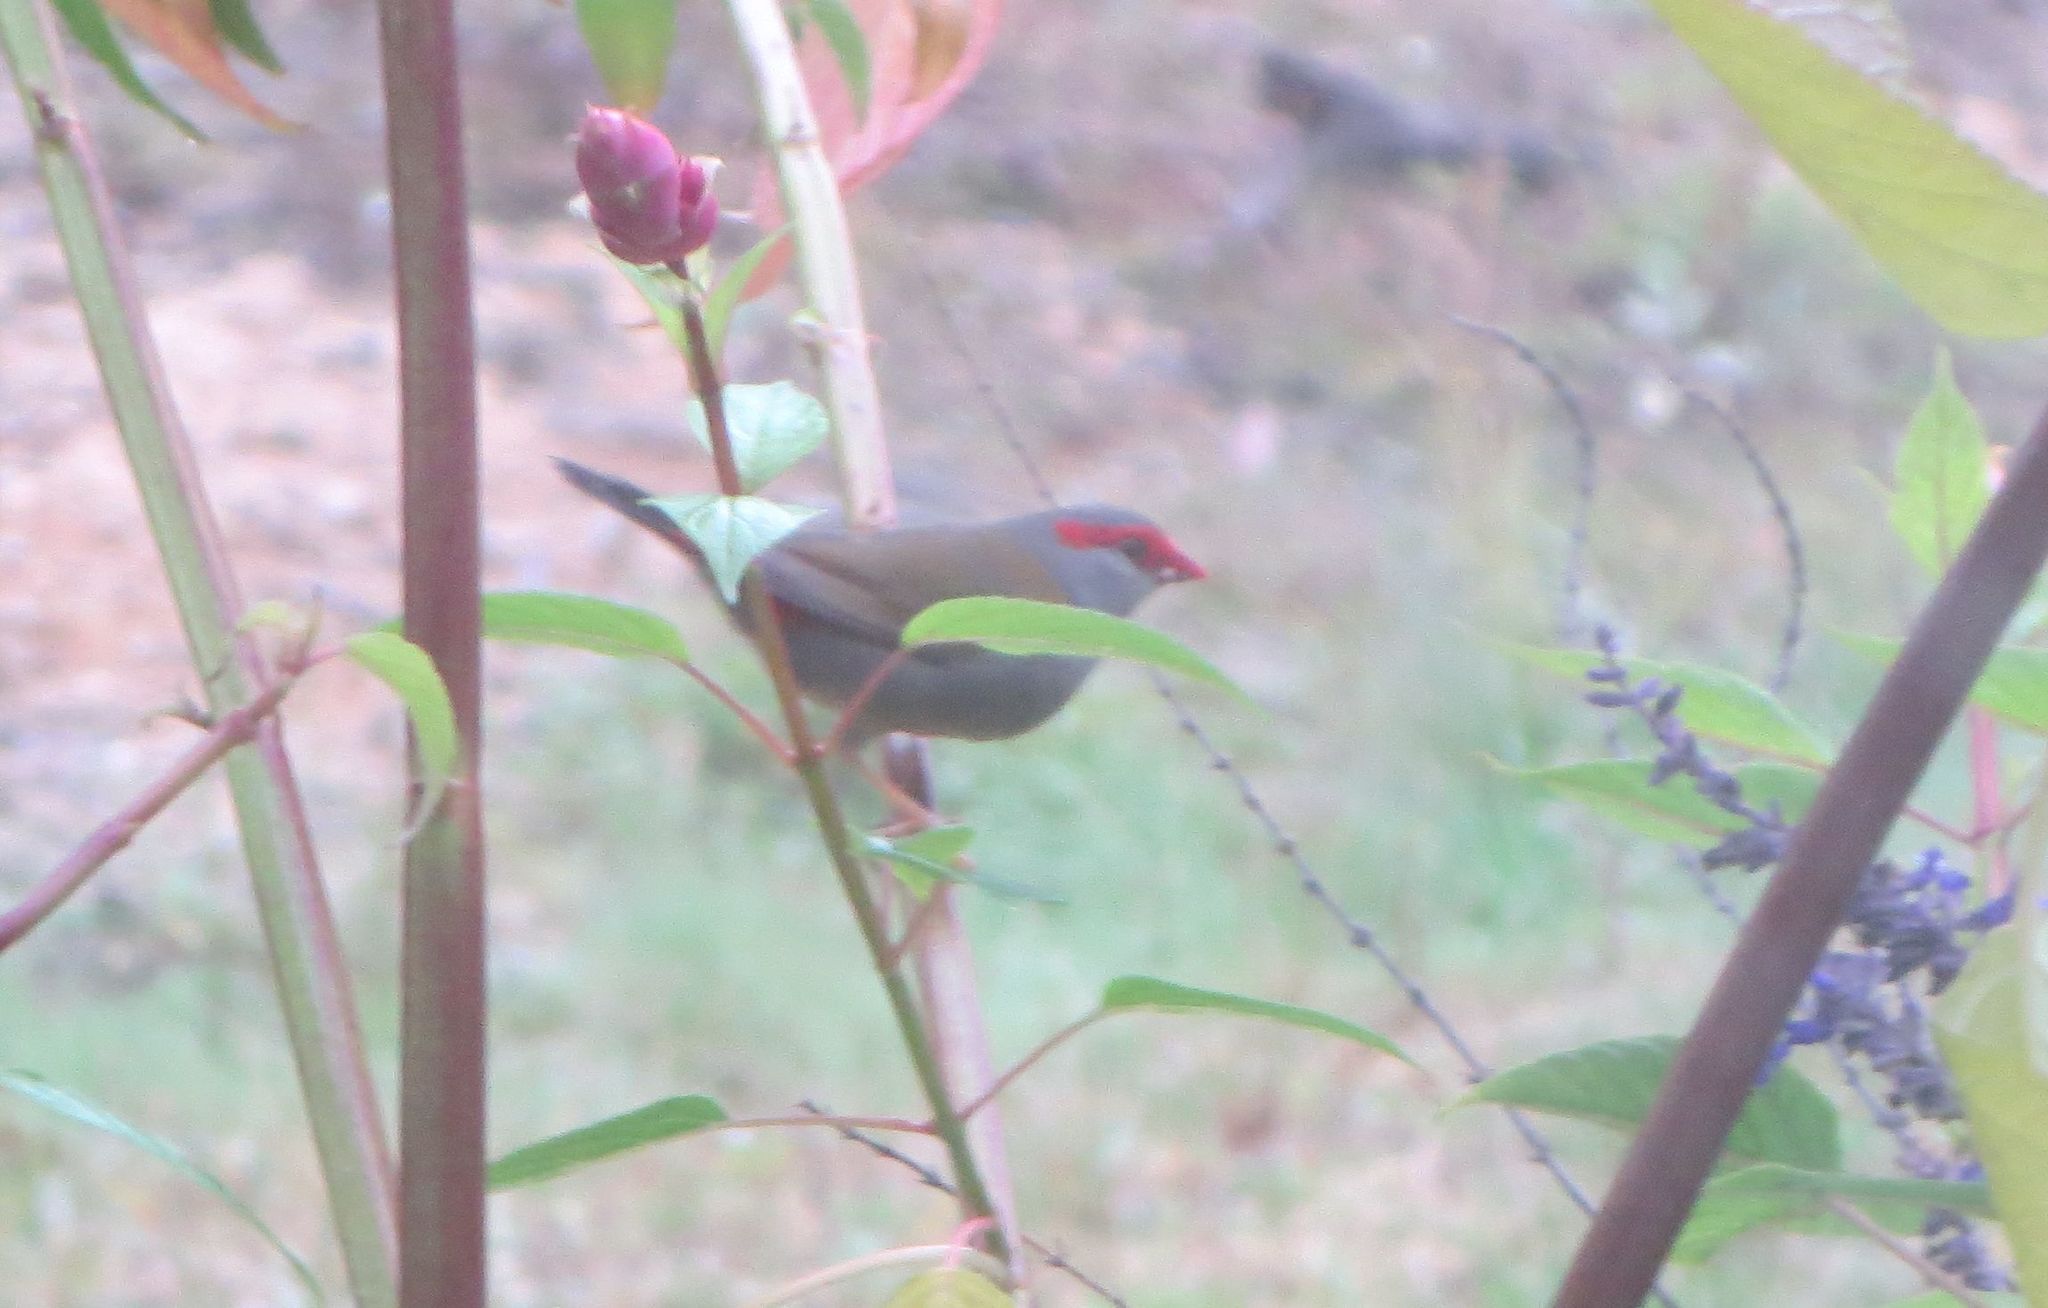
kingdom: Animalia
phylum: Chordata
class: Aves
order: Passeriformes
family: Estrildidae
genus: Neochmia
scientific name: Neochmia temporalis
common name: Red-browed finch
